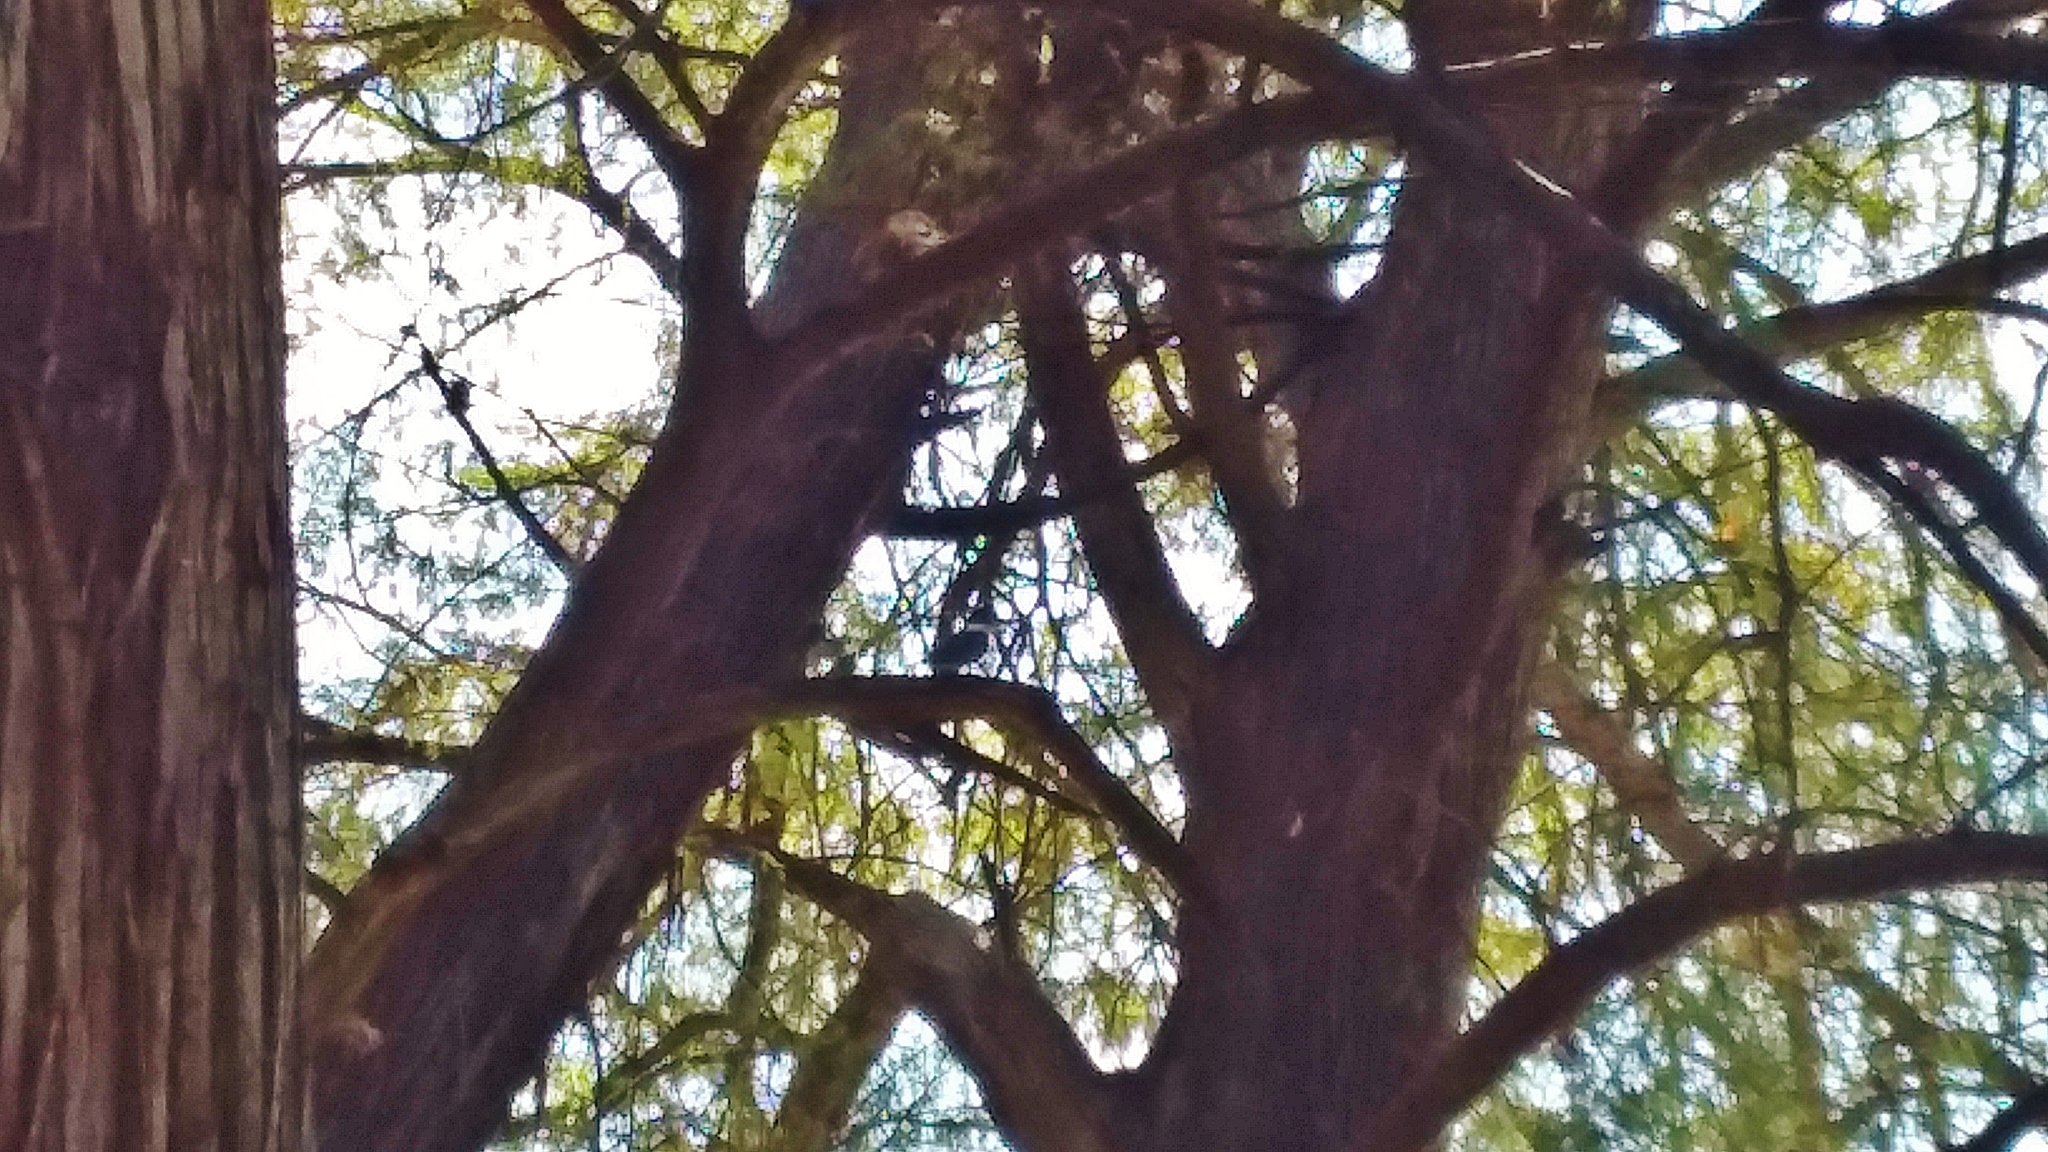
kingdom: Animalia
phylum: Chordata
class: Aves
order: Coraciiformes
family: Alcedinidae
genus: Megaceryle
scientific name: Megaceryle torquata
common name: Ringed kingfisher
